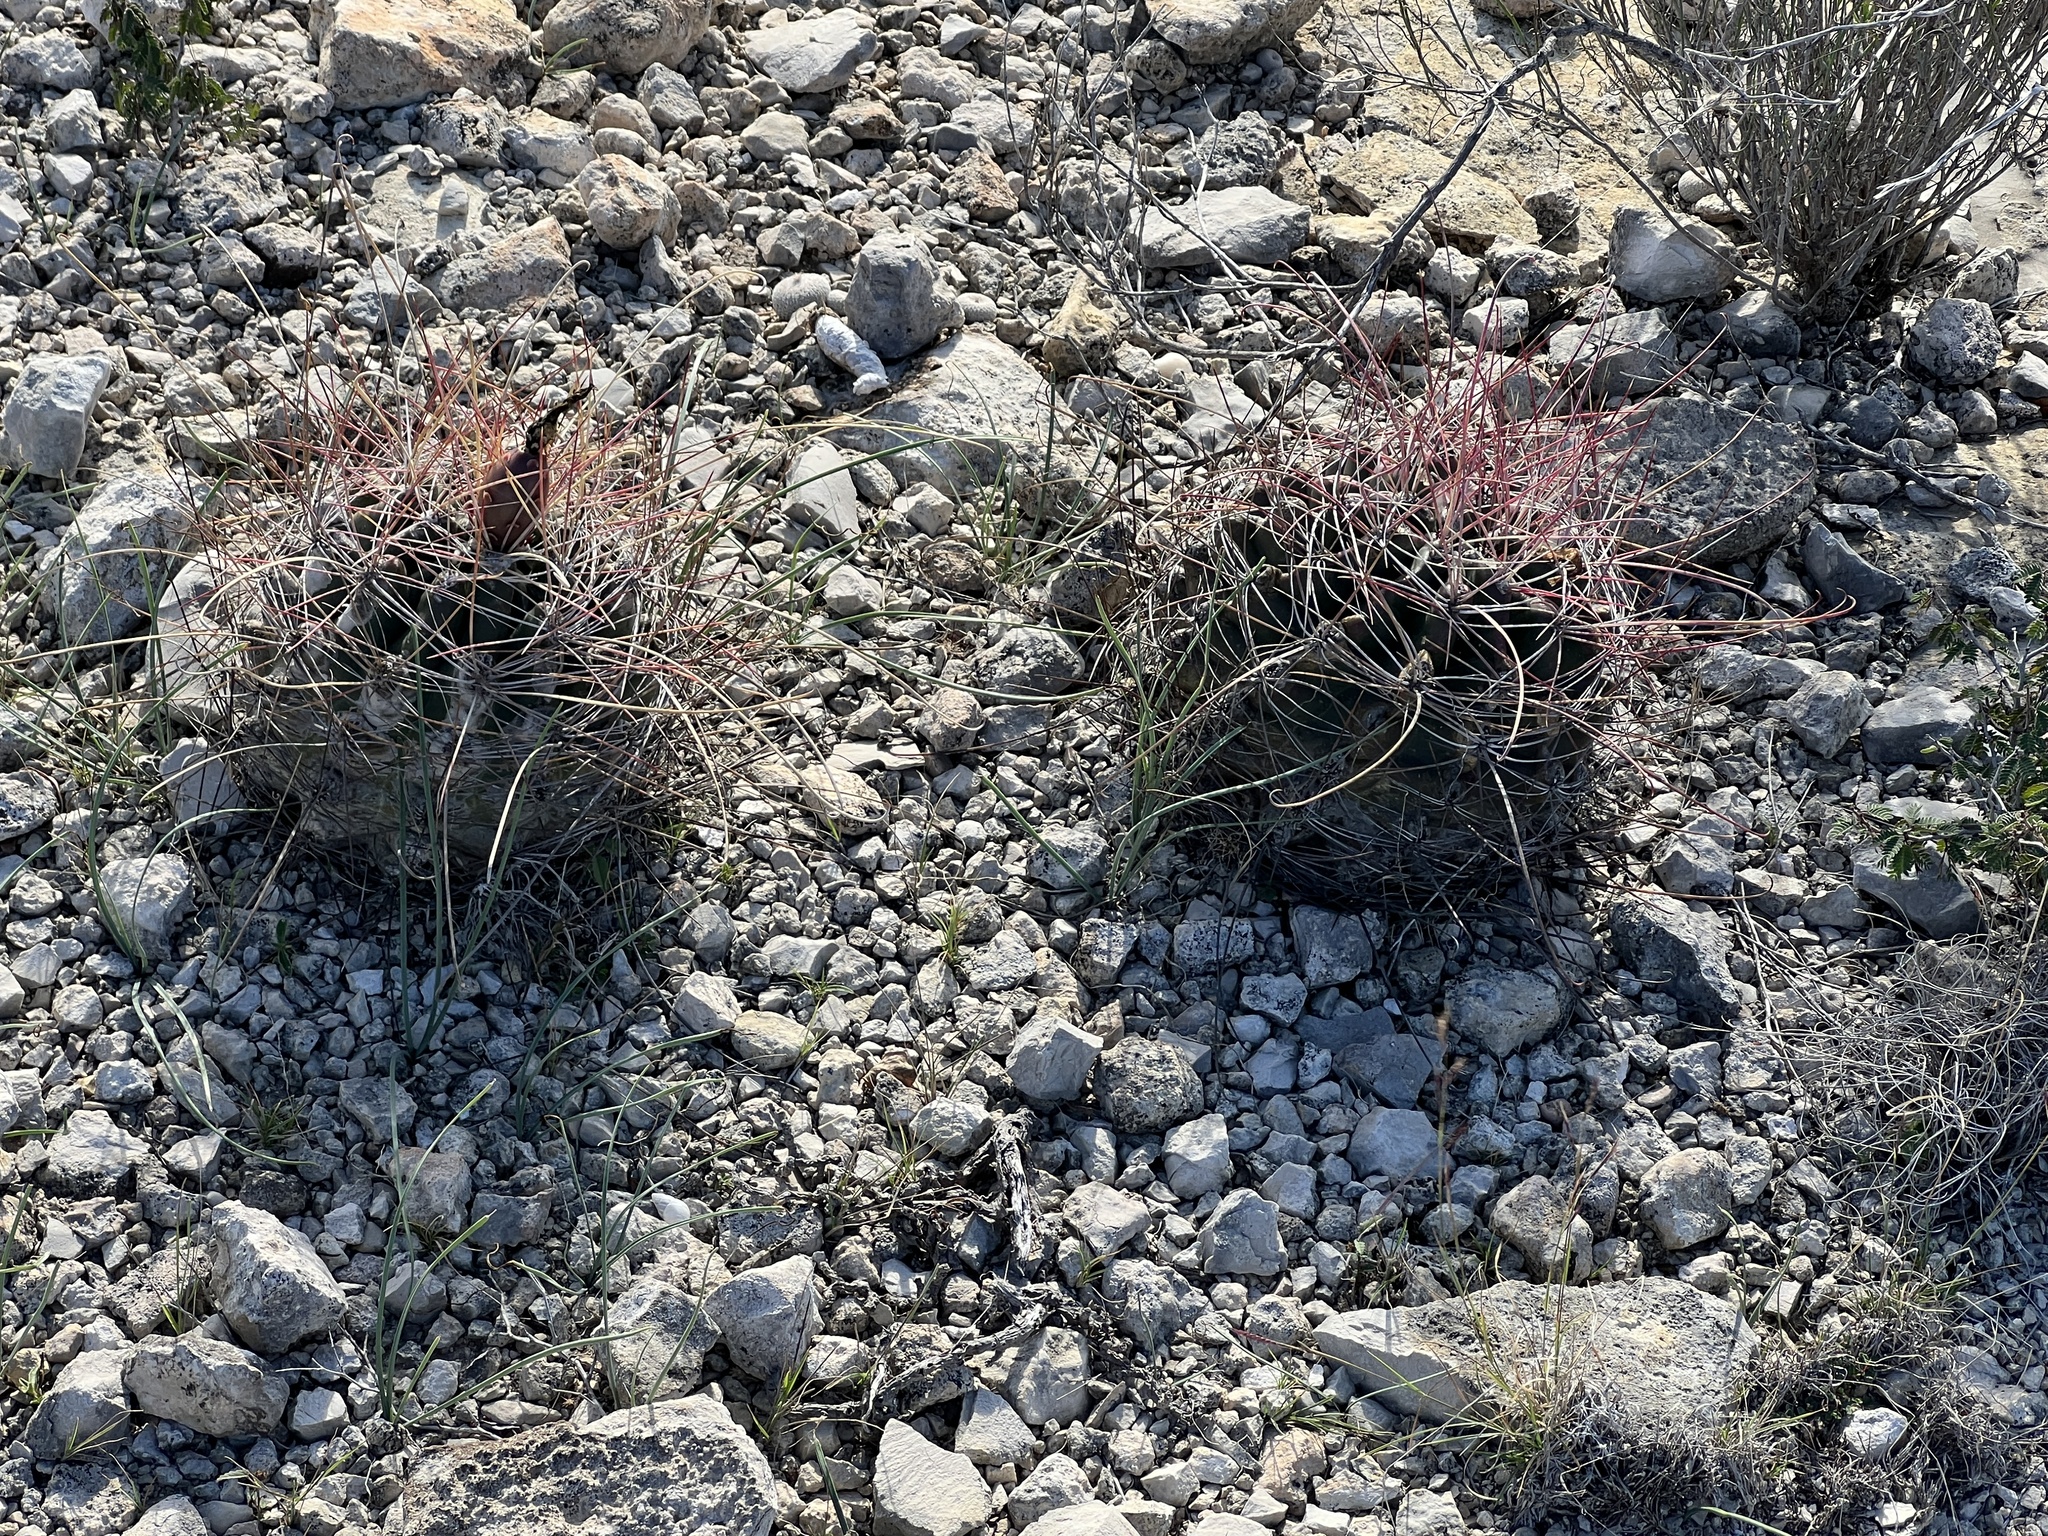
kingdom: Plantae
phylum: Tracheophyta
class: Magnoliopsida
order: Caryophyllales
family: Cactaceae
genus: Bisnaga
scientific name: Bisnaga hamatacantha
